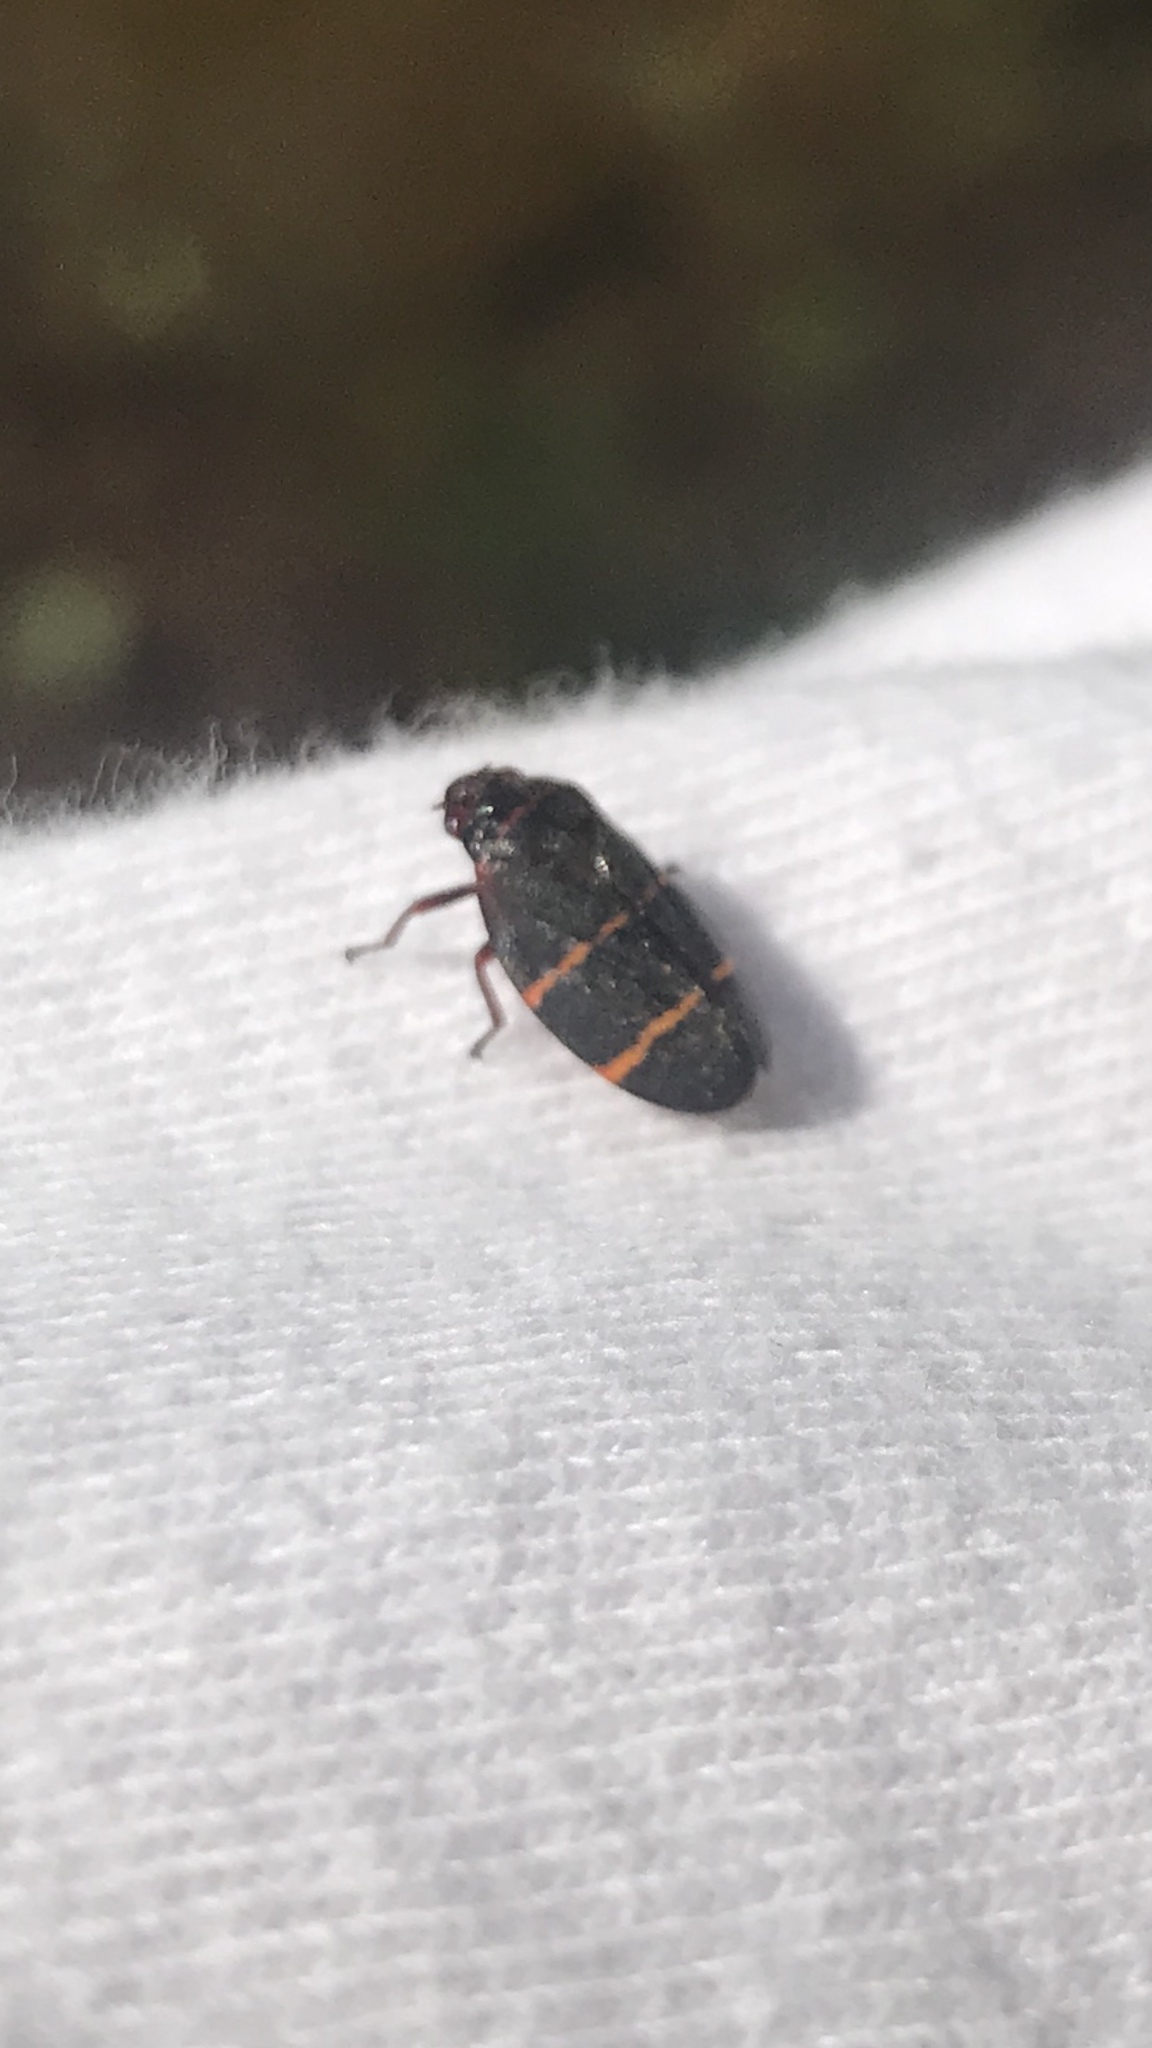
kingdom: Animalia
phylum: Arthropoda
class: Insecta
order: Hemiptera
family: Cercopidae
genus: Prosapia
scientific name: Prosapia bicincta
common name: Twolined spittlebug
